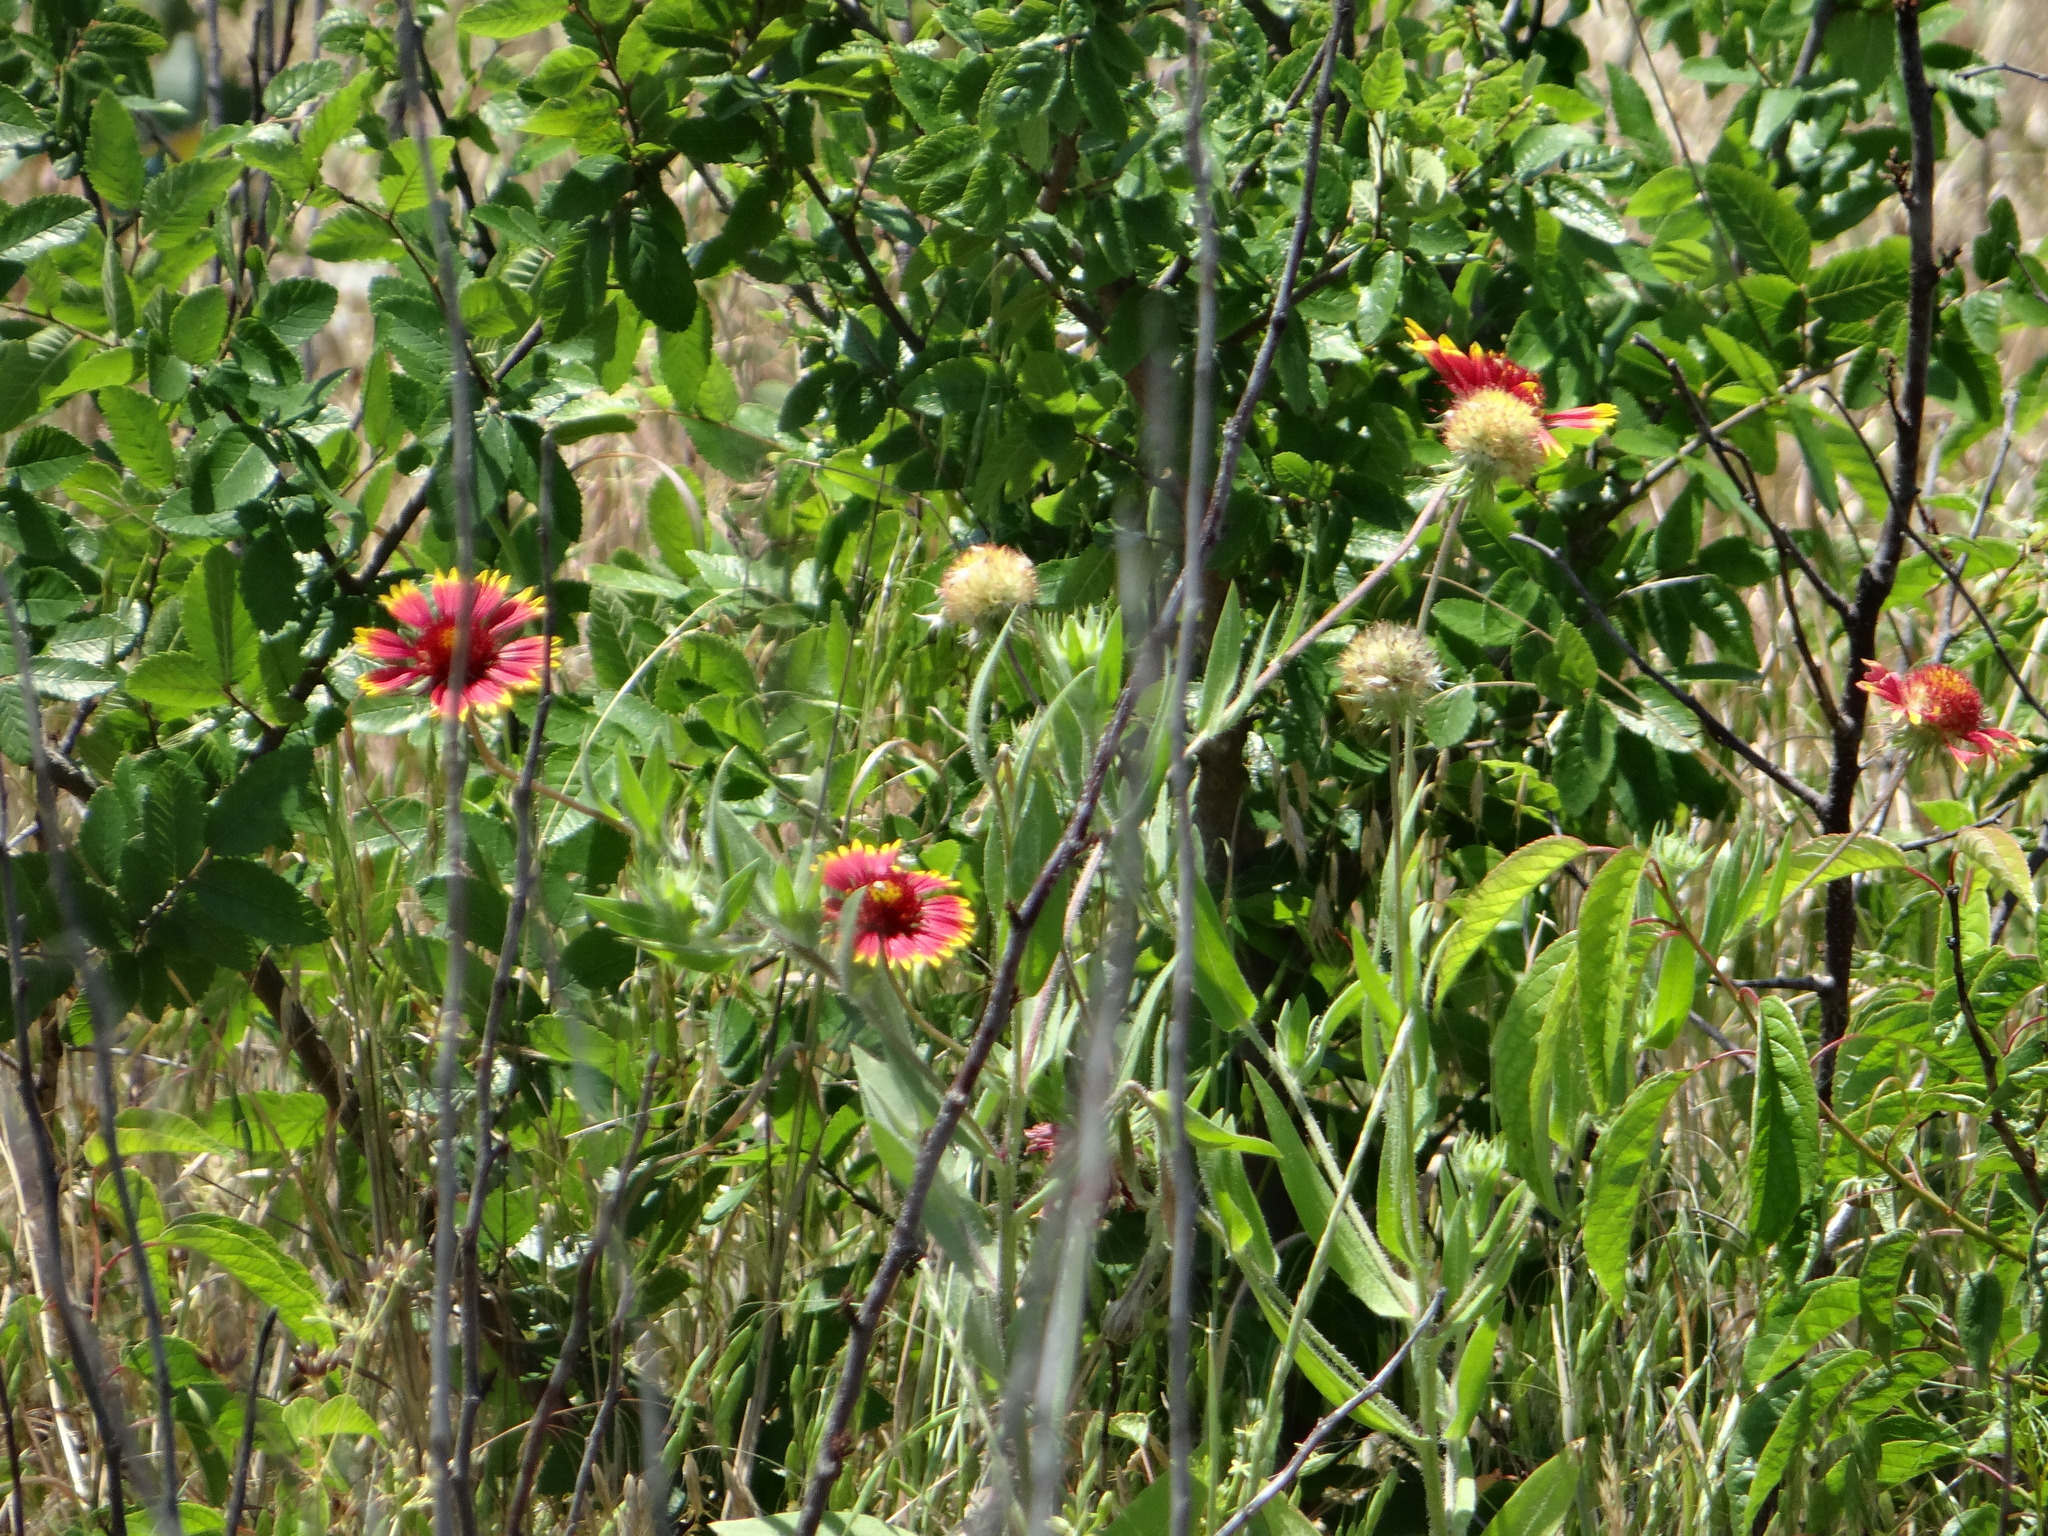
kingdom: Plantae
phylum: Tracheophyta
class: Magnoliopsida
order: Asterales
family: Asteraceae
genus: Gaillardia
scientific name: Gaillardia pulchella
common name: Firewheel
